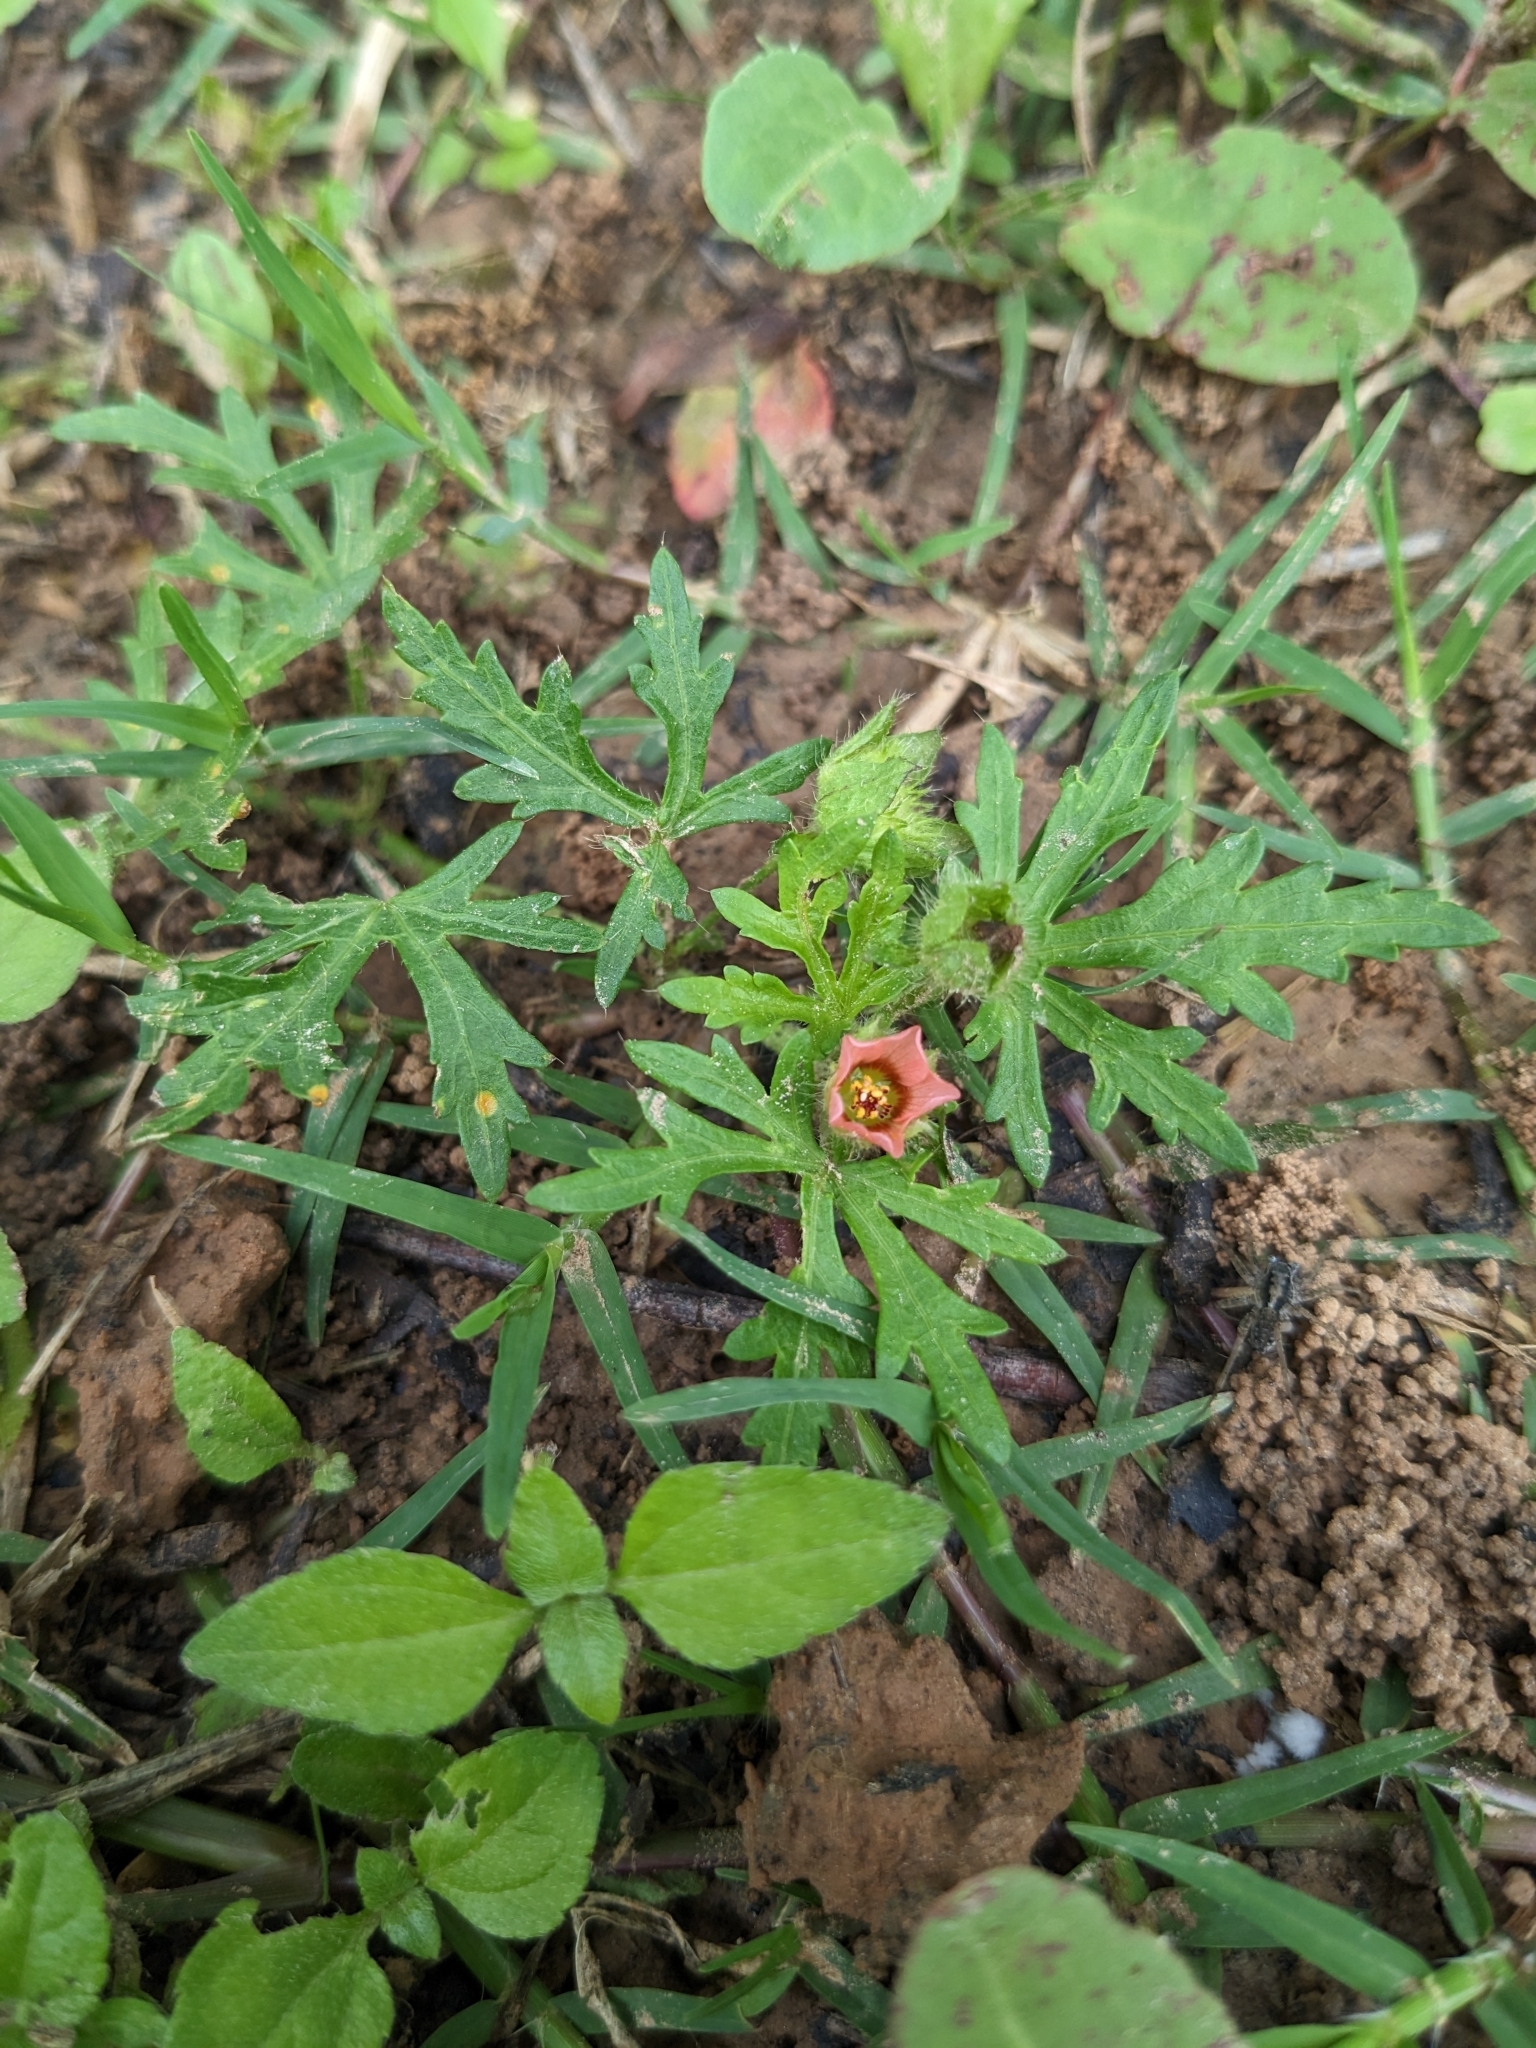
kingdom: Plantae
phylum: Tracheophyta
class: Magnoliopsida
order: Malvales
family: Malvaceae
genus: Modiola
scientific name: Modiola caroliniana
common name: Carolina bristlemallow
